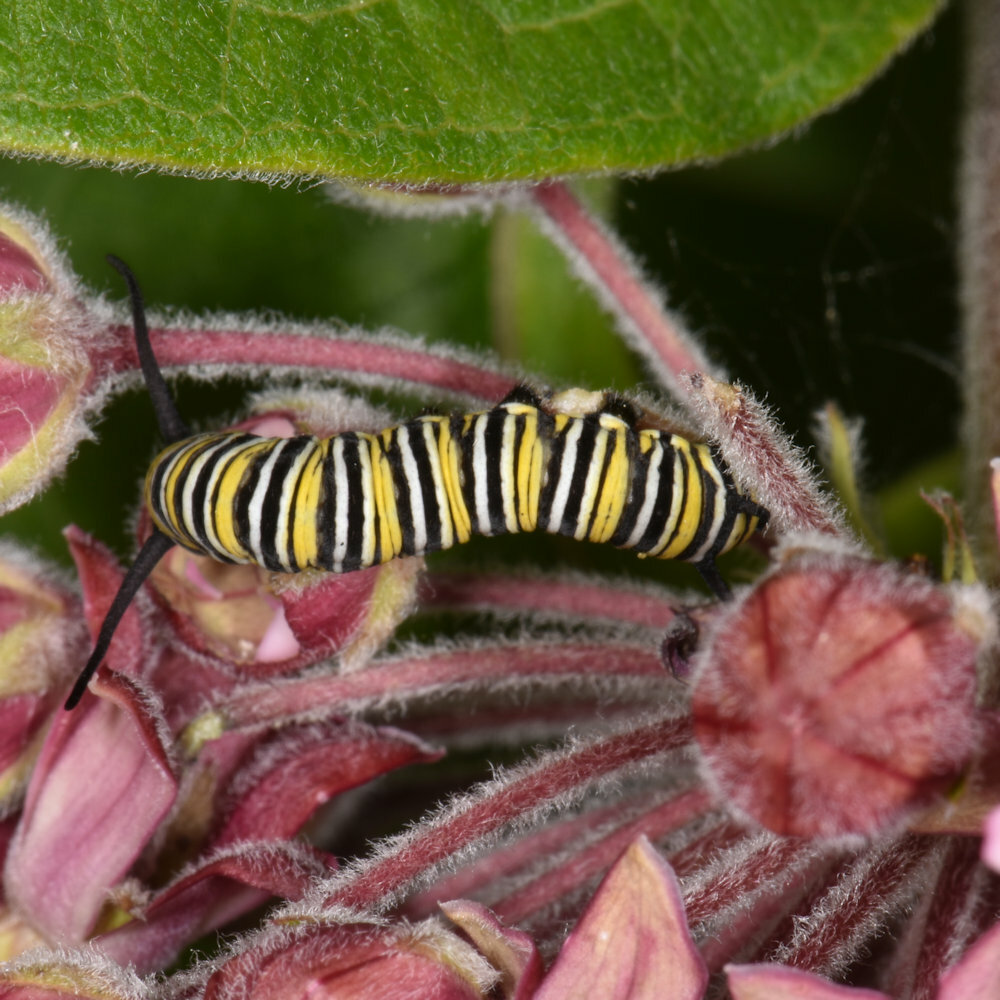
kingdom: Animalia
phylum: Arthropoda
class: Insecta
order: Lepidoptera
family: Nymphalidae
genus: Danaus
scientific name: Danaus plexippus
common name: Monarch
